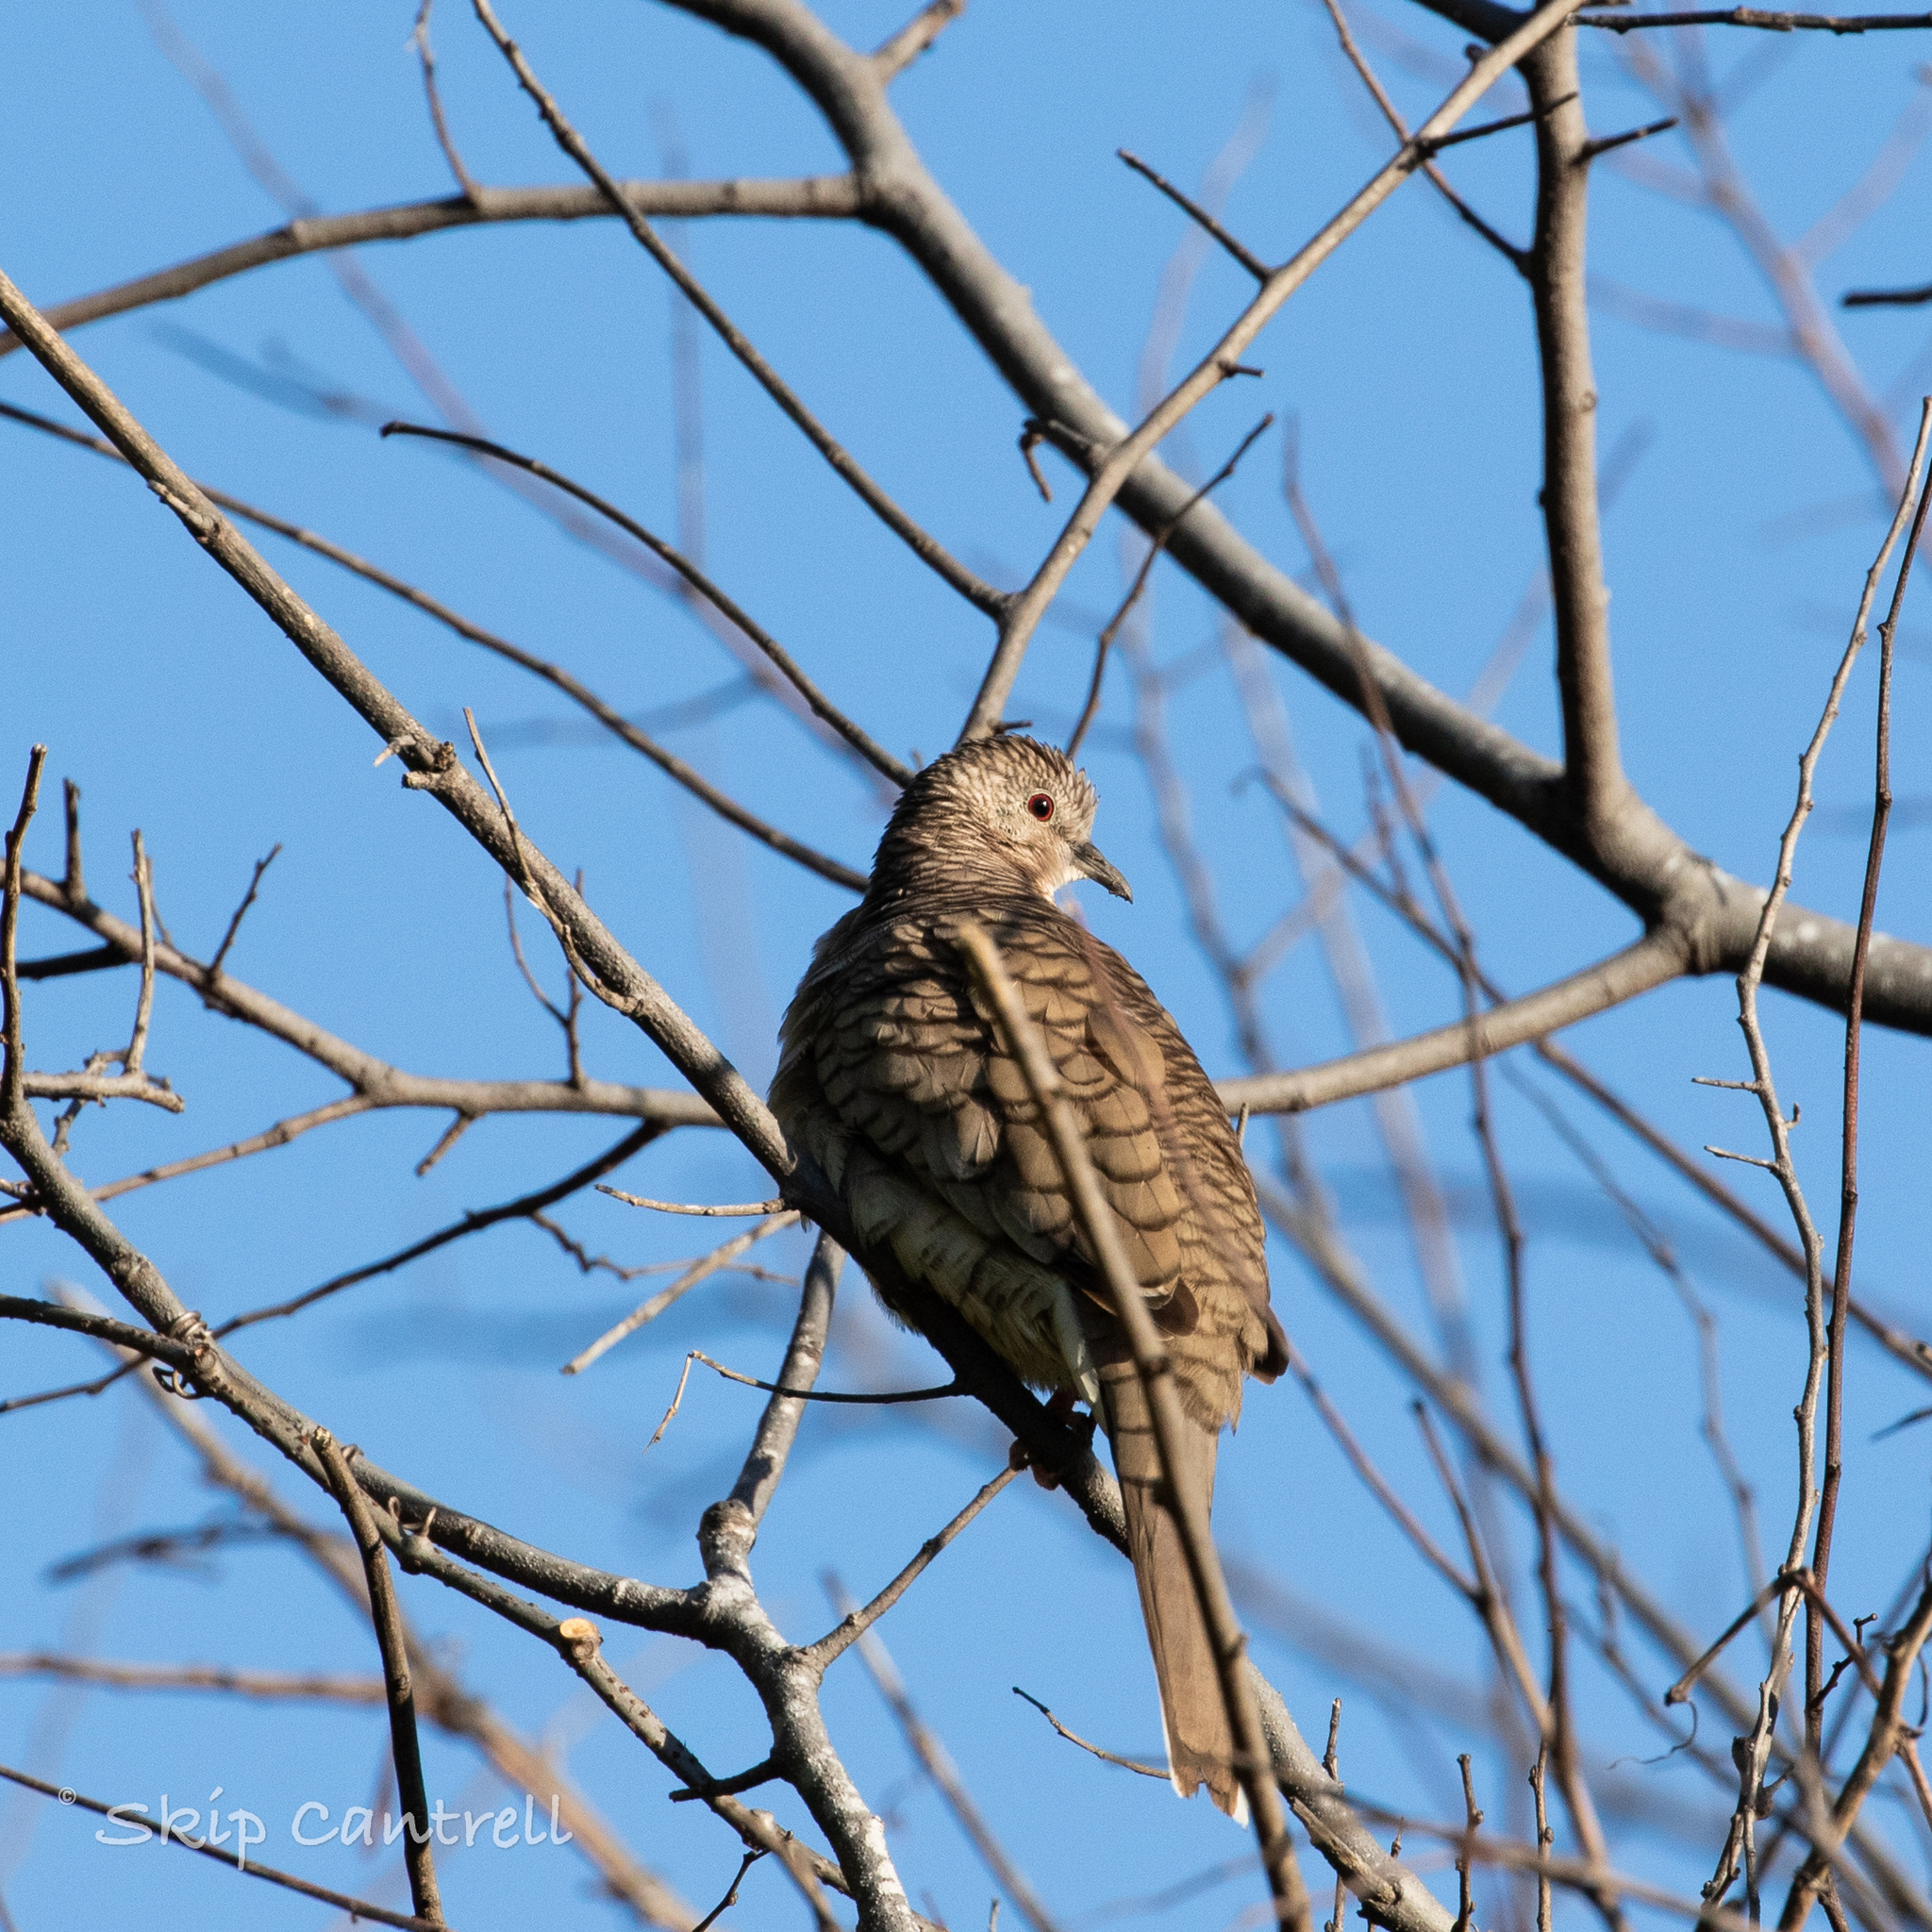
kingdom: Animalia
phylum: Chordata
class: Aves
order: Columbiformes
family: Columbidae
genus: Columbina
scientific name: Columbina inca
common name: Inca dove
